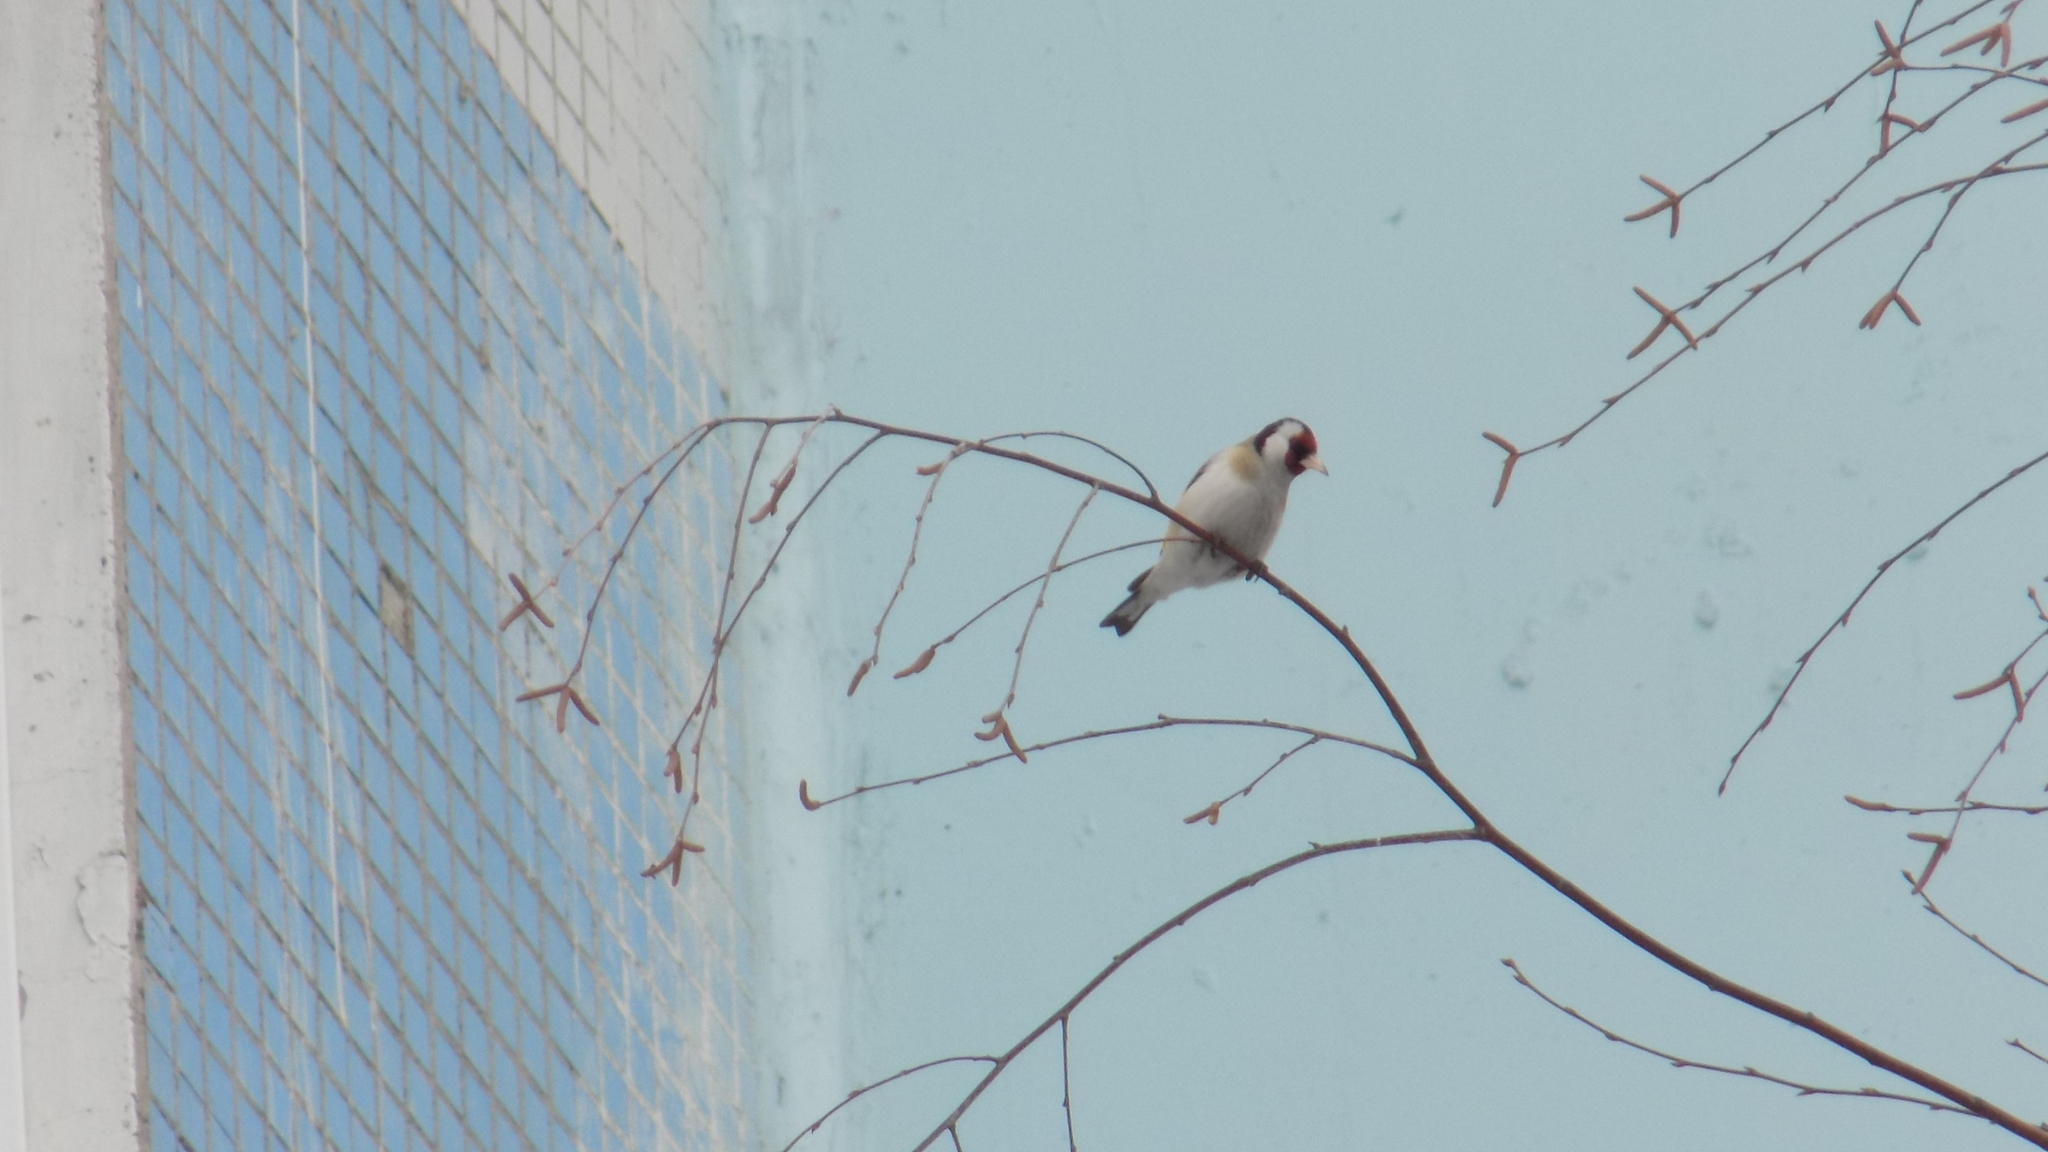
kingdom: Animalia
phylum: Chordata
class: Aves
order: Passeriformes
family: Fringillidae
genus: Carduelis
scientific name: Carduelis carduelis
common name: European goldfinch
